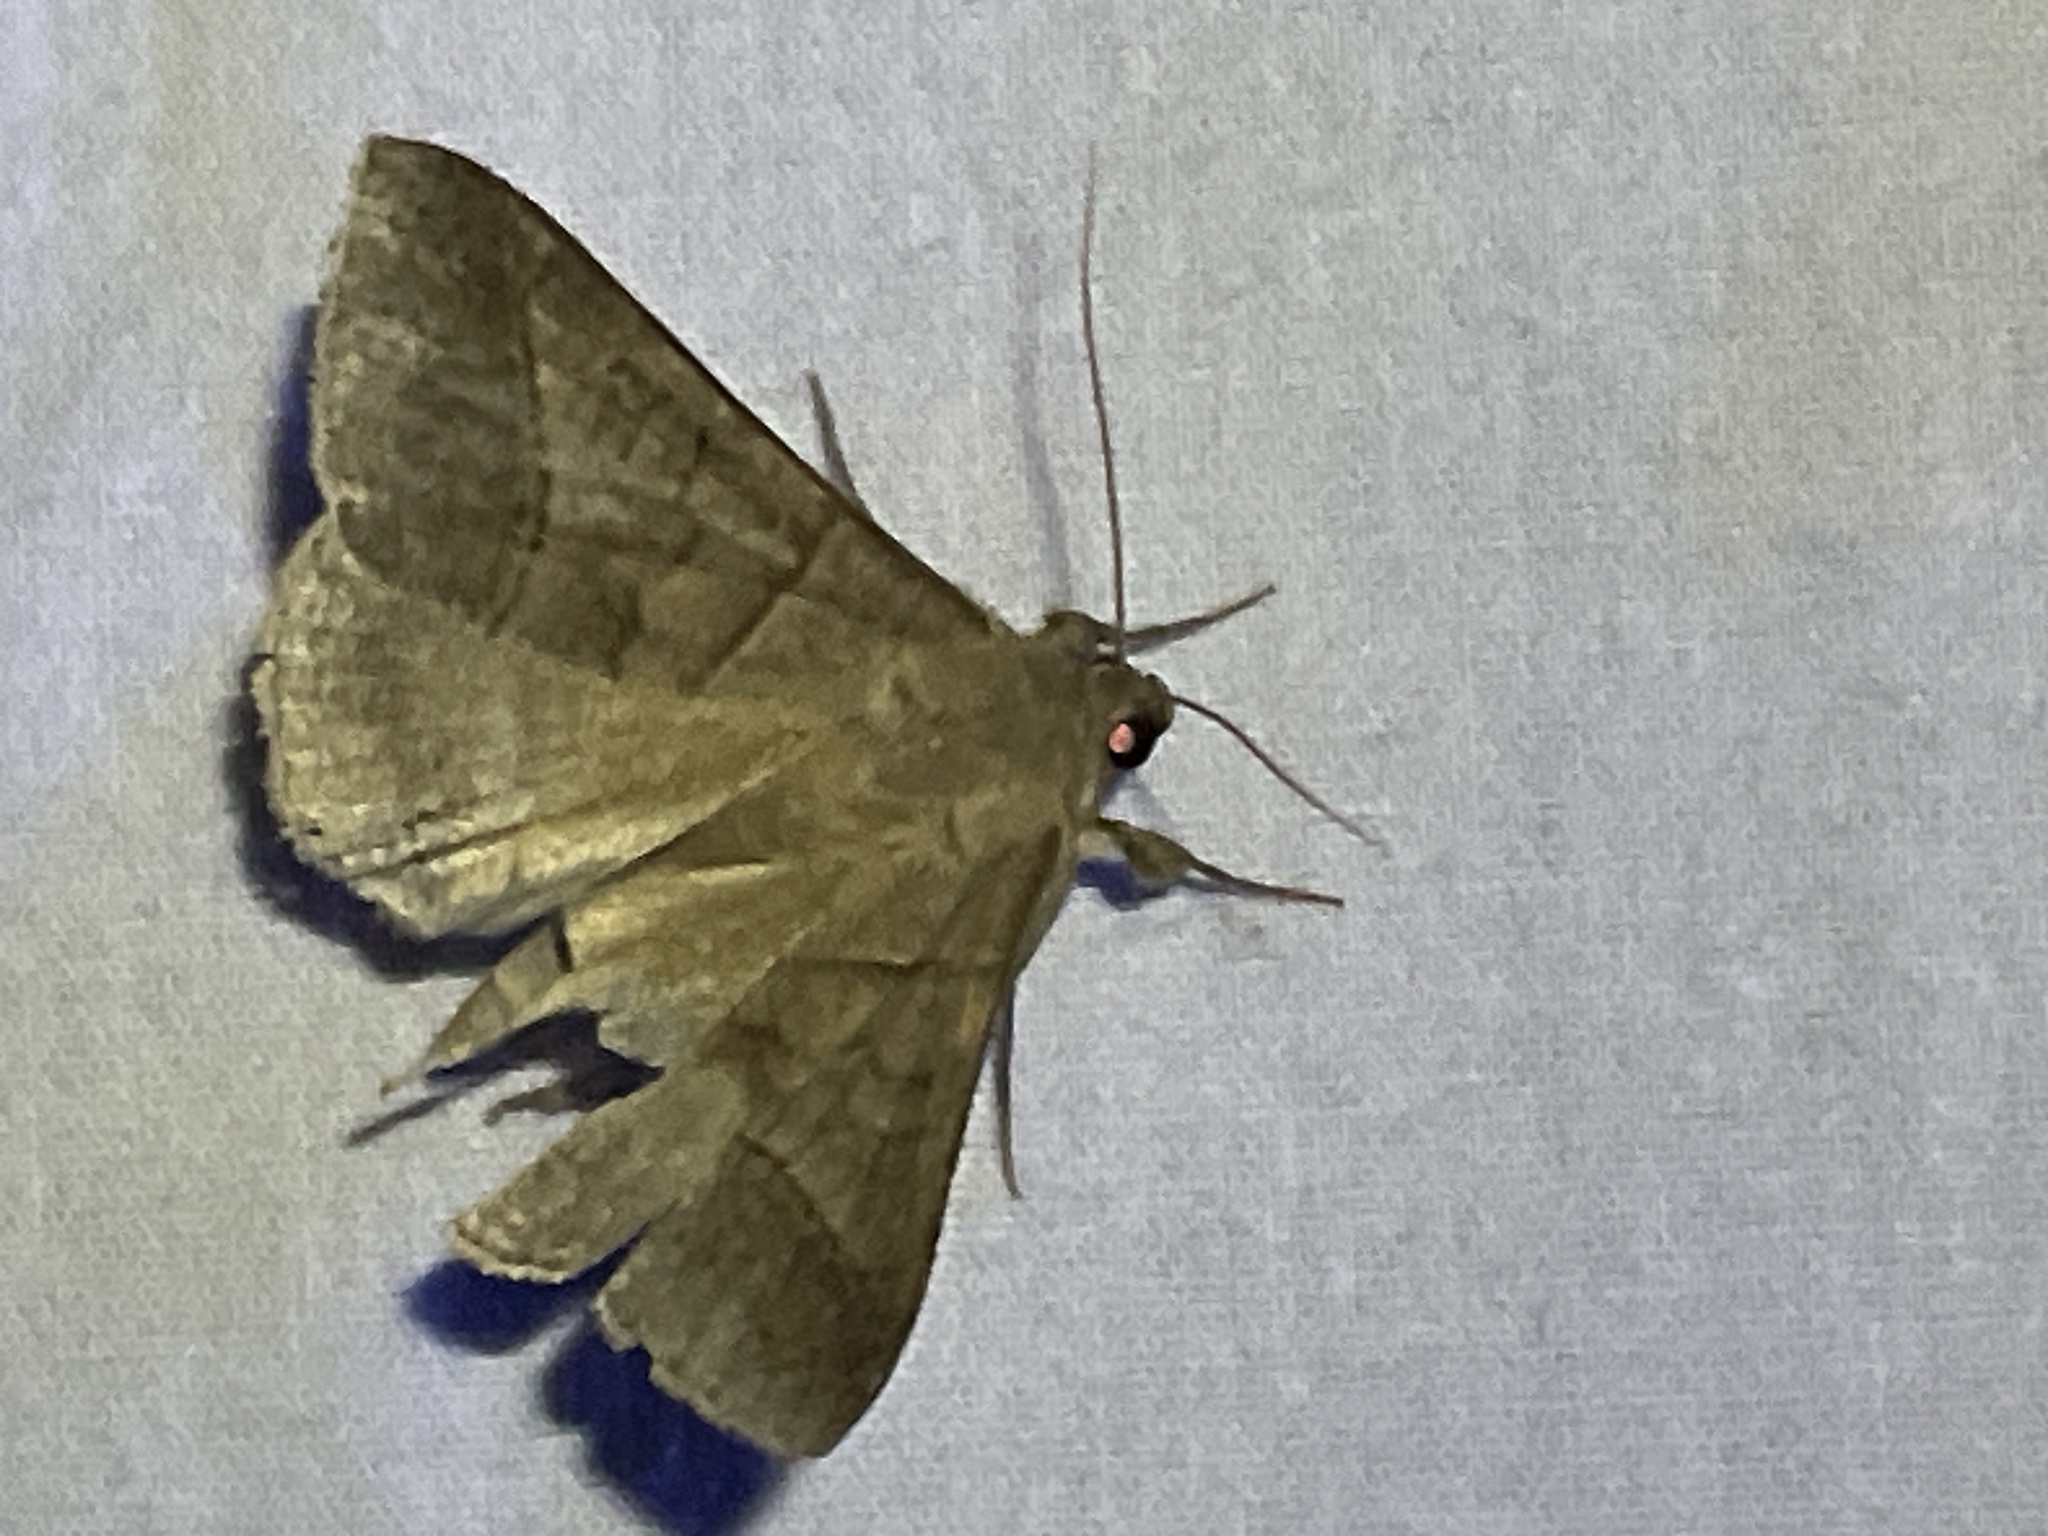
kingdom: Animalia
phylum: Arthropoda
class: Insecta
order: Lepidoptera
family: Erebidae
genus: Mocis
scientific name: Mocis texana
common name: Texas mocis moth
